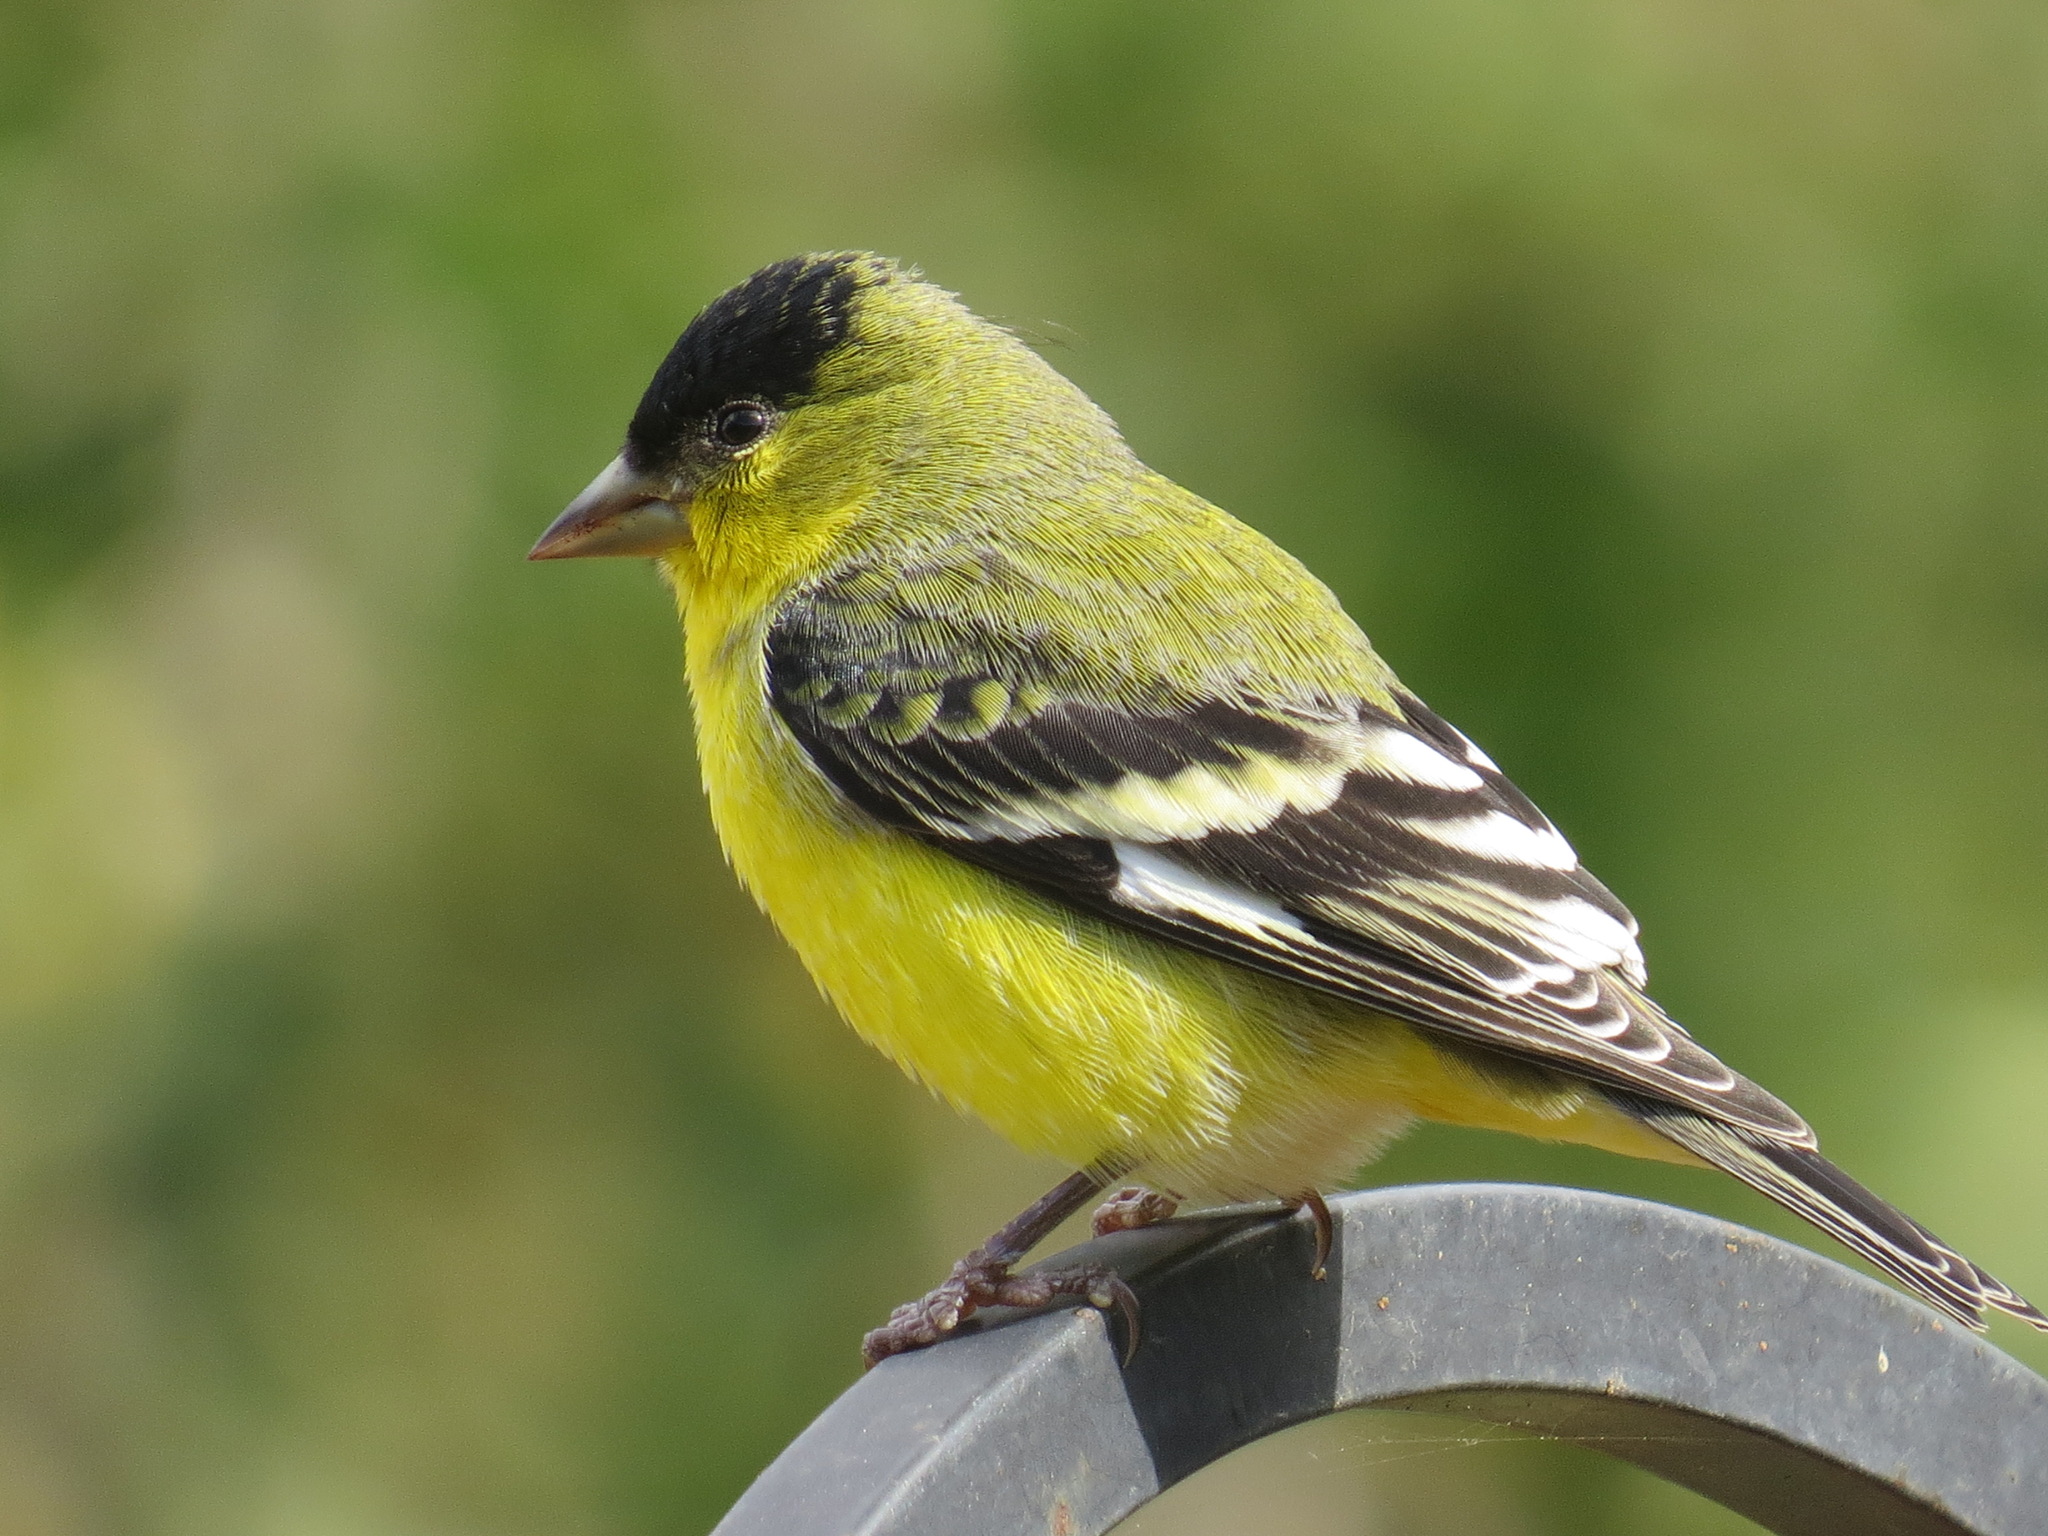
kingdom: Animalia
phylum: Chordata
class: Aves
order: Passeriformes
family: Fringillidae
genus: Spinus
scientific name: Spinus psaltria
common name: Lesser goldfinch
